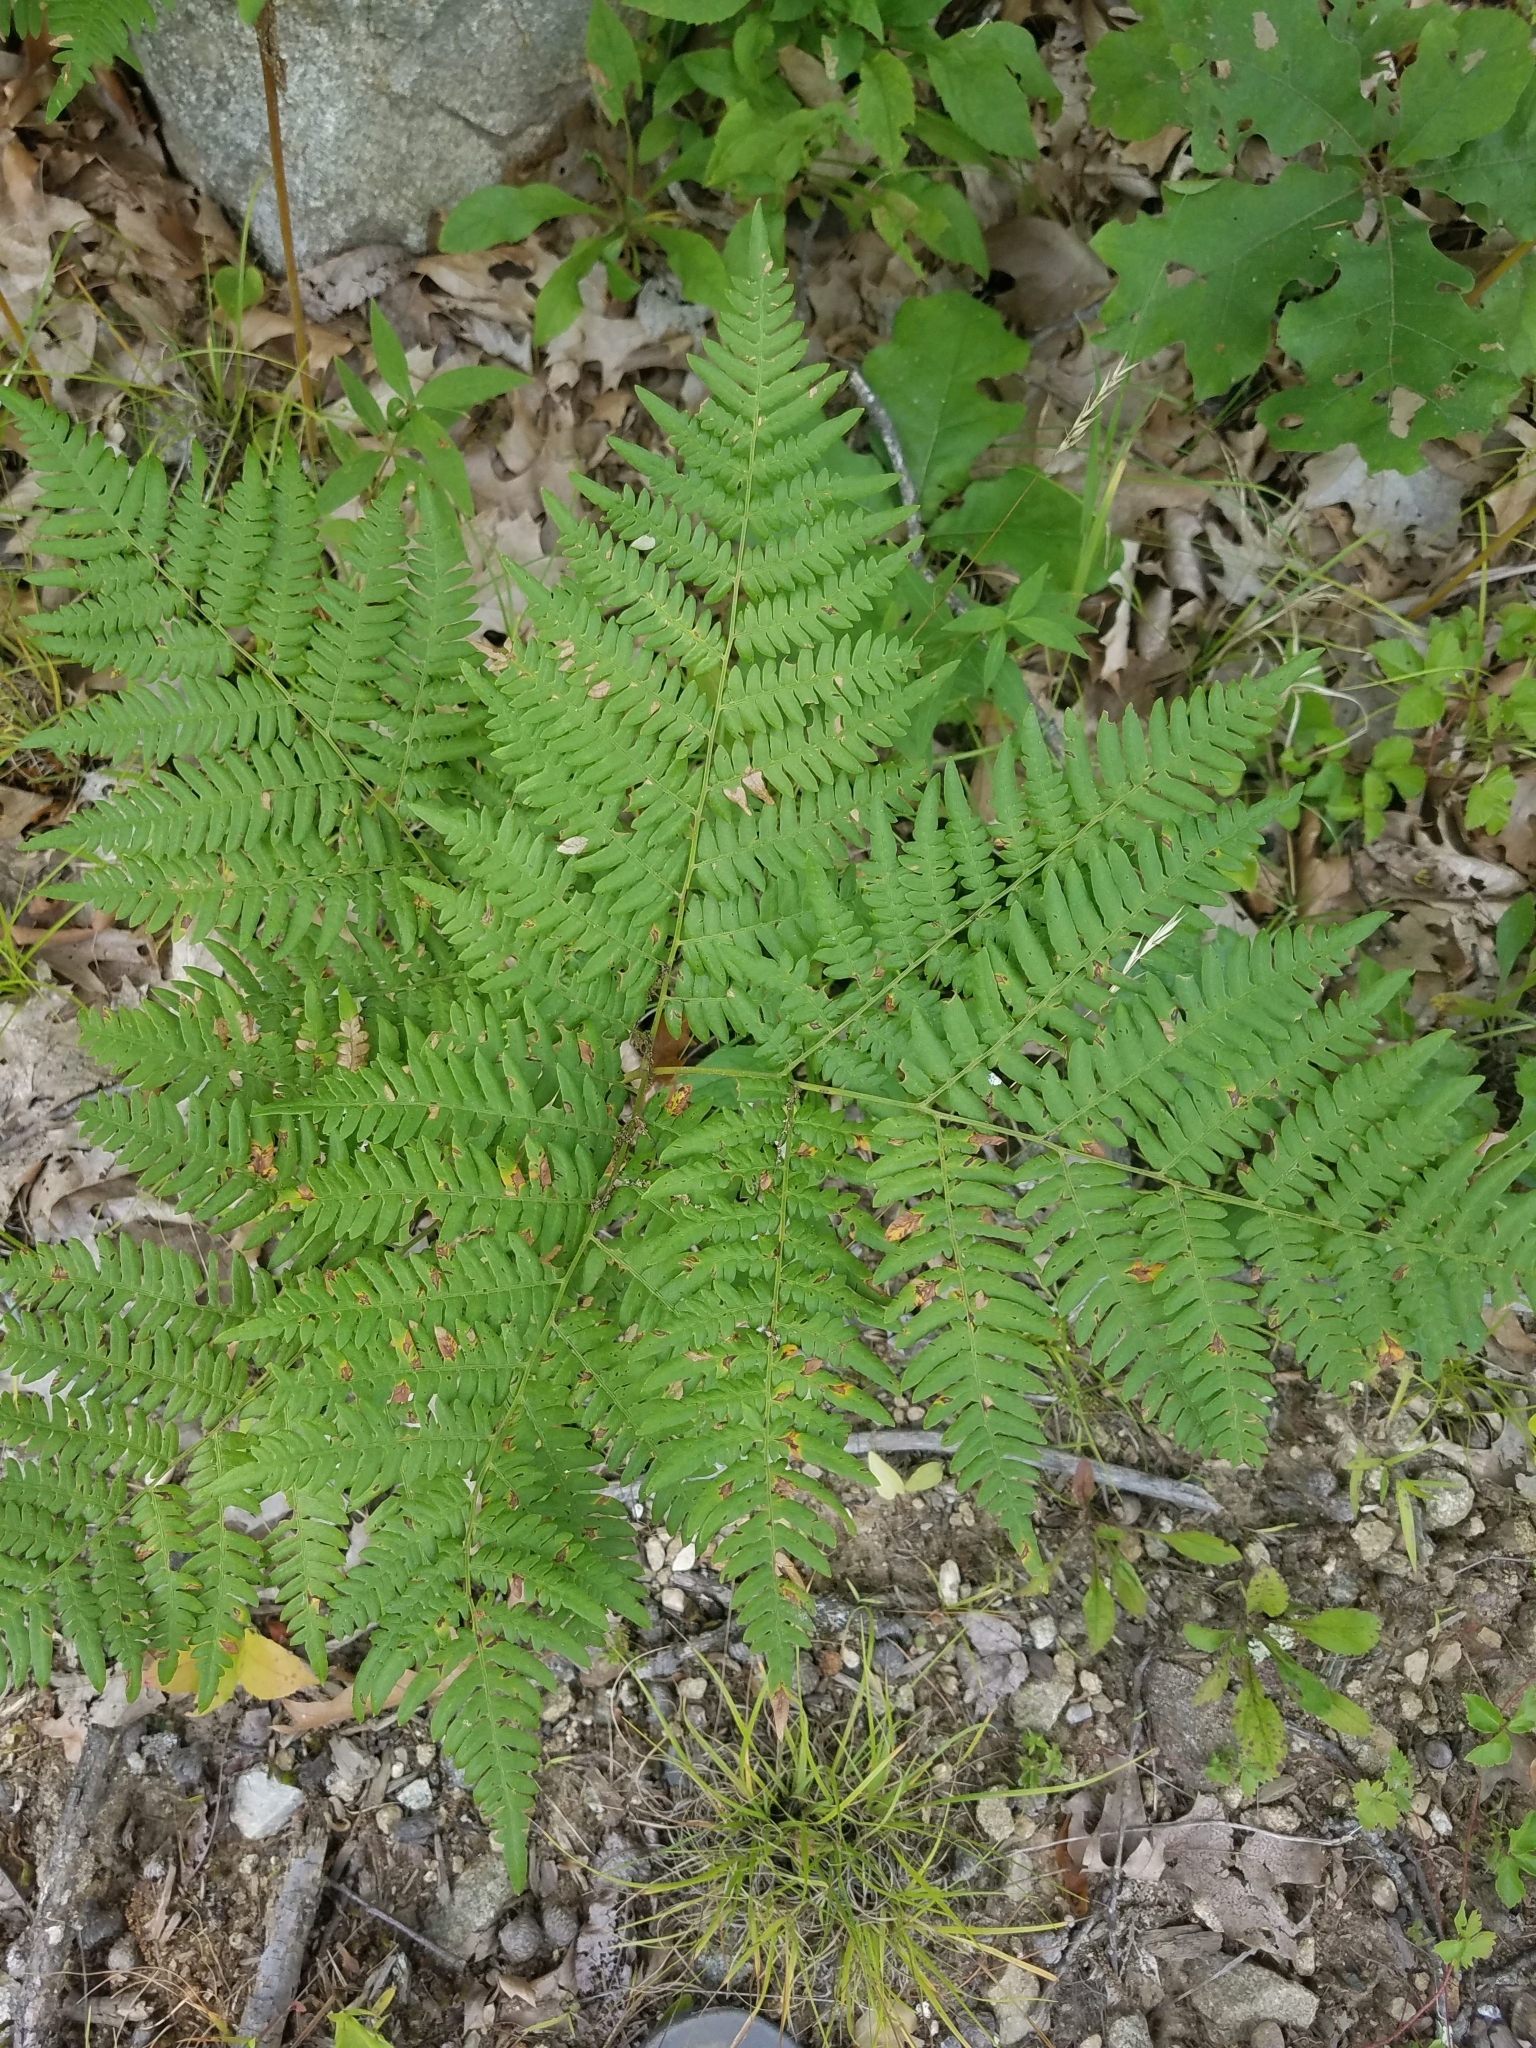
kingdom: Plantae
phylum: Tracheophyta
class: Polypodiopsida
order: Polypodiales
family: Dennstaedtiaceae
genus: Pteridium
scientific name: Pteridium aquilinum
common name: Bracken
